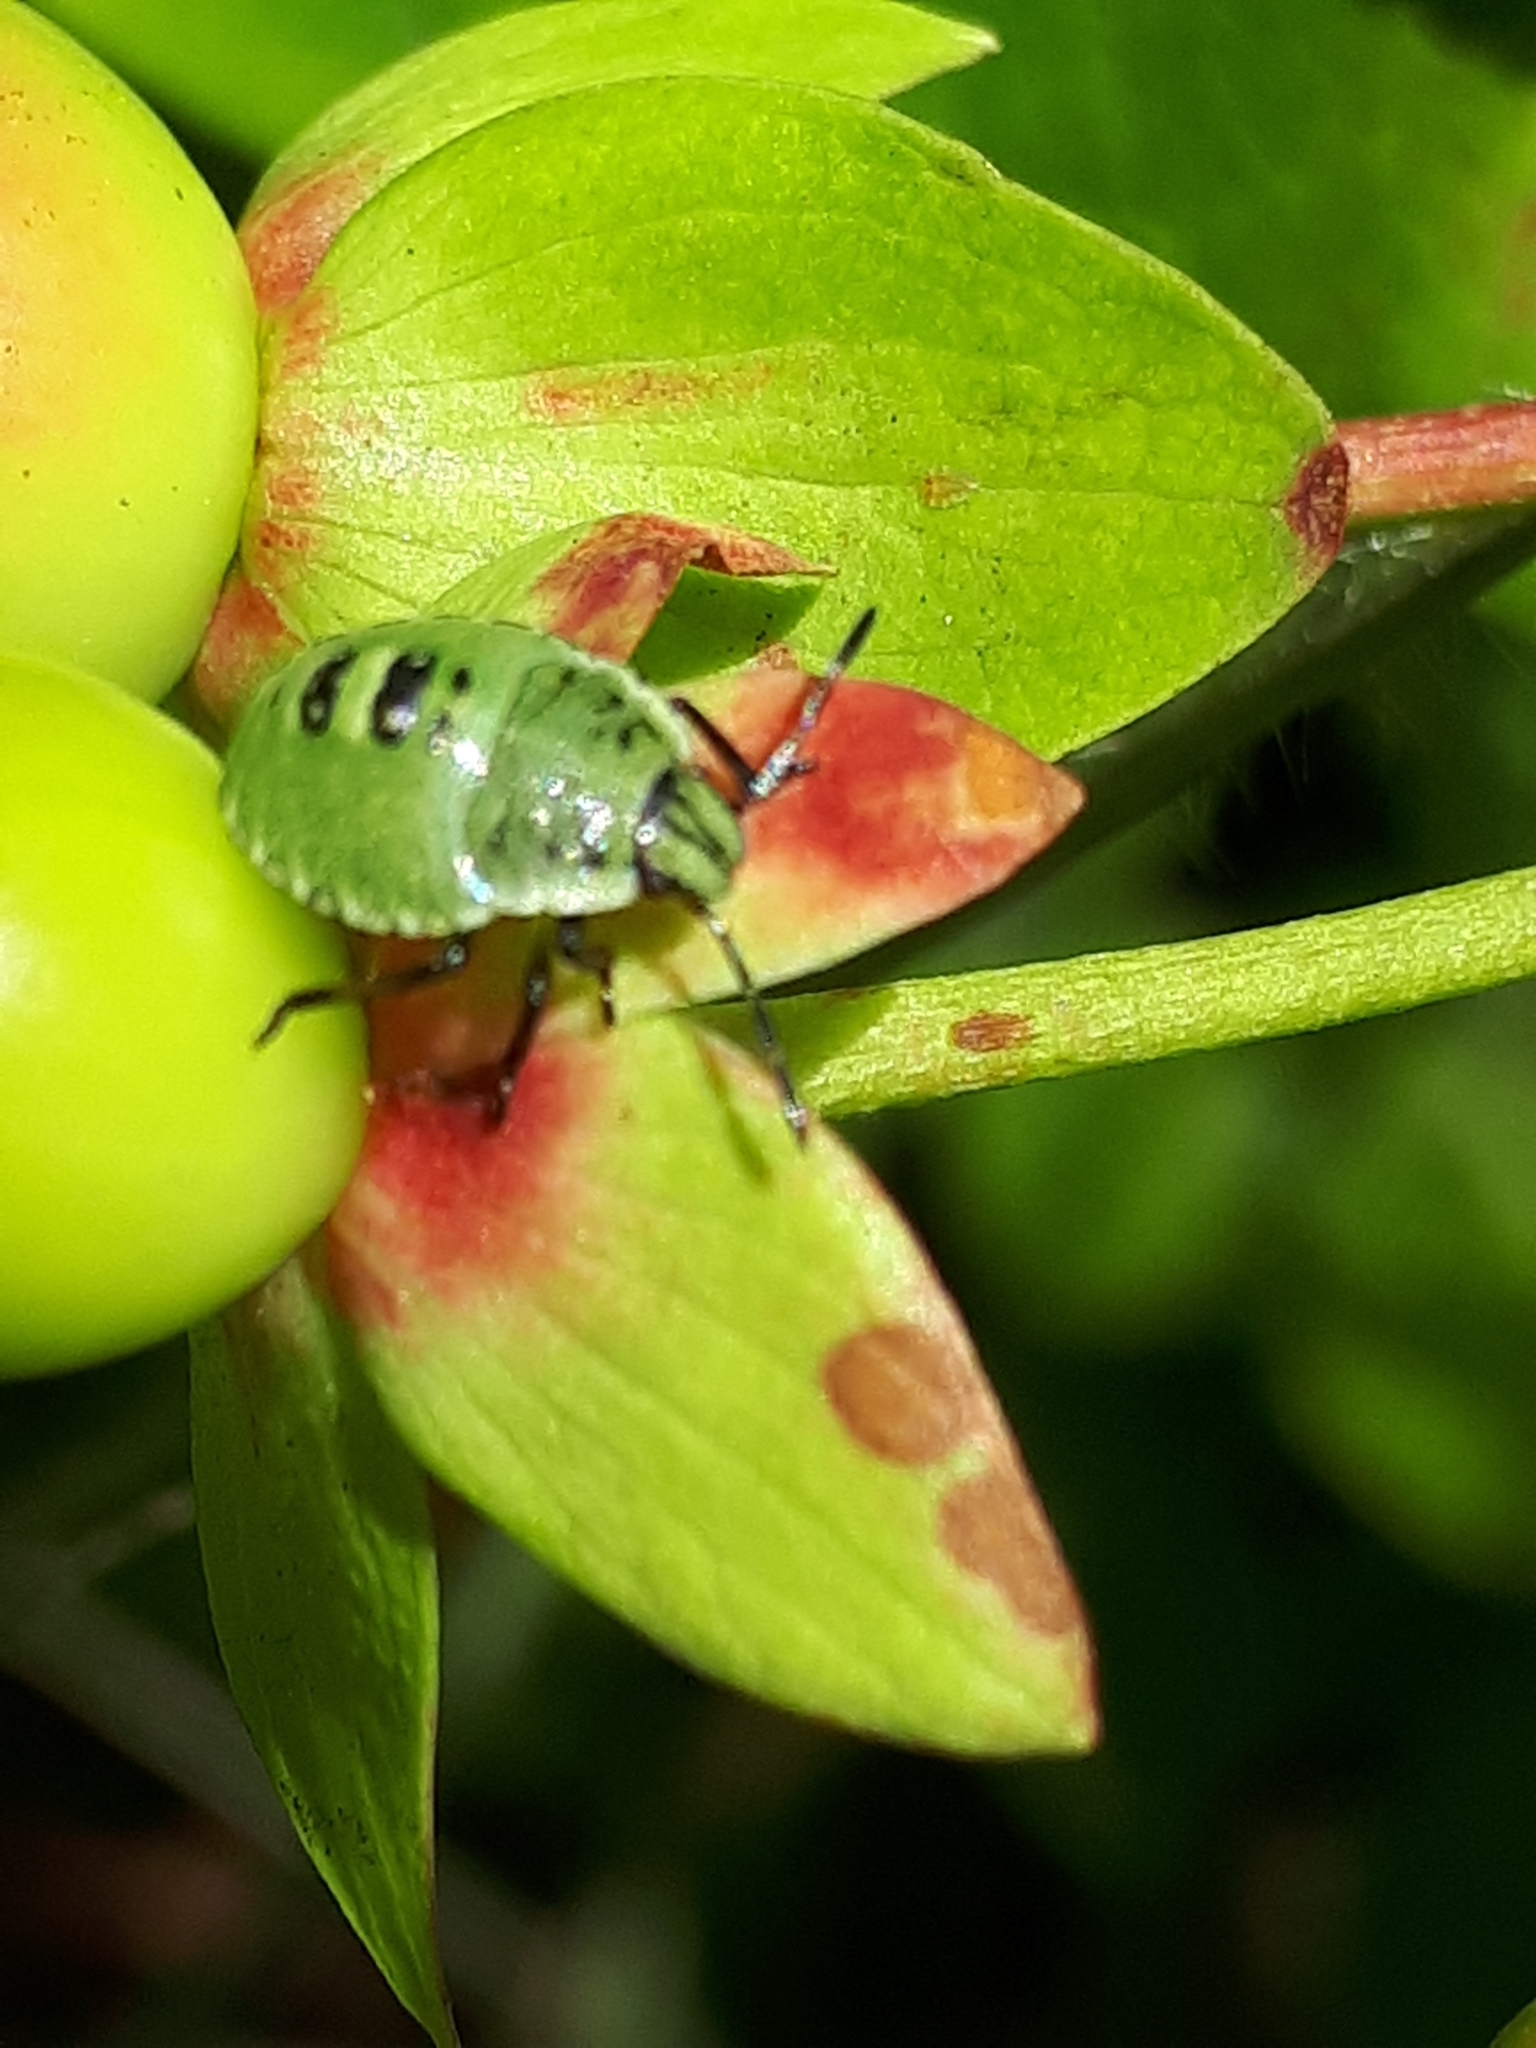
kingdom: Animalia
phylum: Arthropoda
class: Insecta
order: Hemiptera
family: Pentatomidae
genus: Palomena
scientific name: Palomena prasina
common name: Green shieldbug
